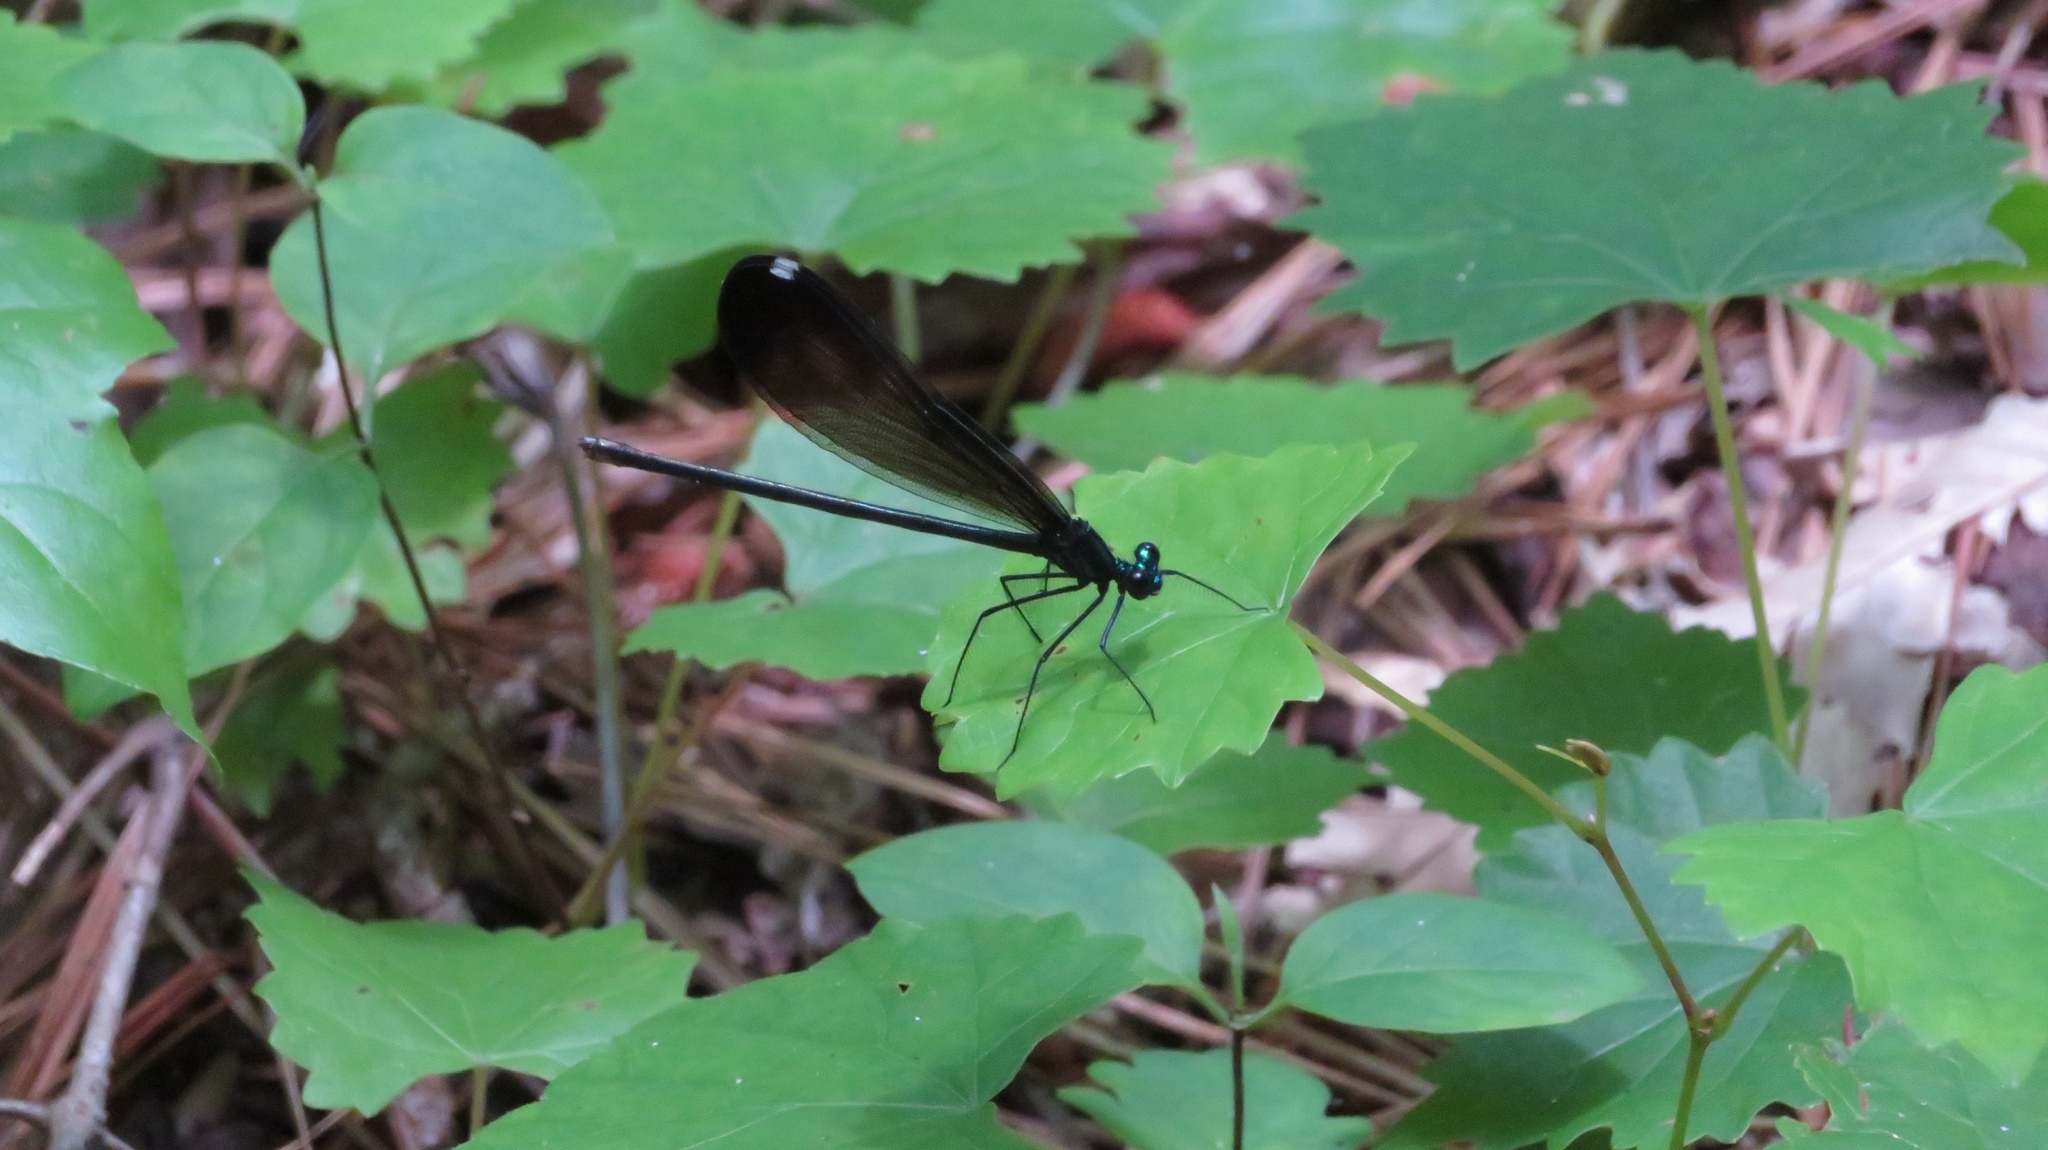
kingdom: Animalia
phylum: Arthropoda
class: Insecta
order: Odonata
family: Calopterygidae
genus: Calopteryx
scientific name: Calopteryx maculata
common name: Ebony jewelwing
